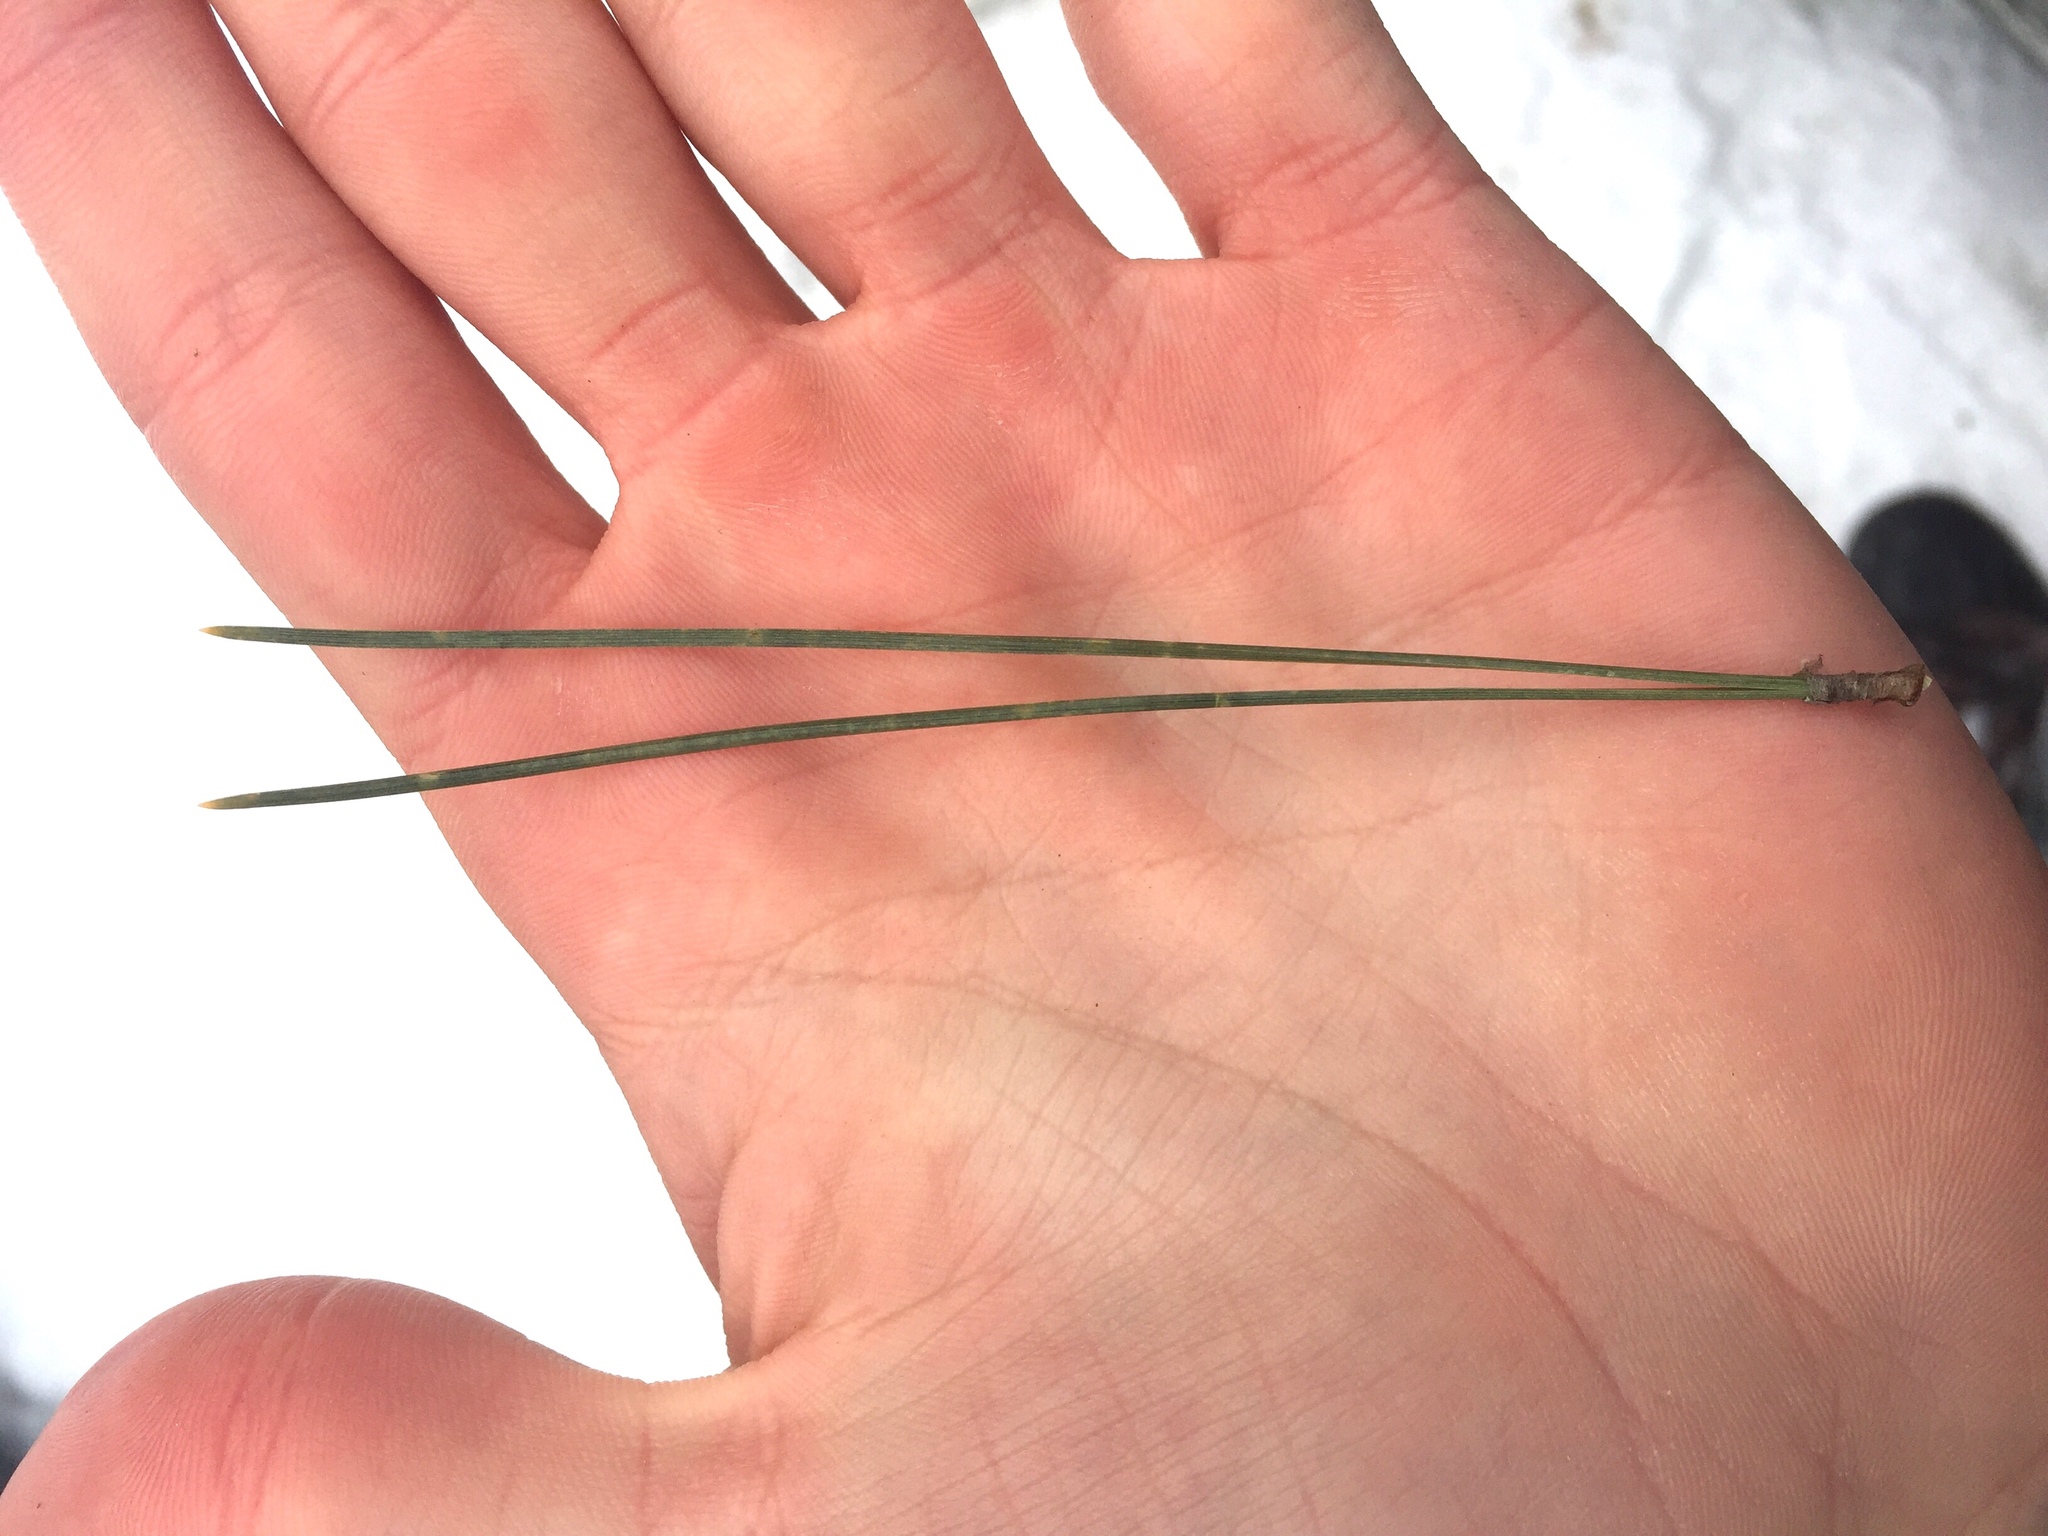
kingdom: Plantae
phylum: Tracheophyta
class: Pinopsida
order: Pinales
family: Pinaceae
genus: Pinus
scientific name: Pinus resinosa
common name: Norway pine
